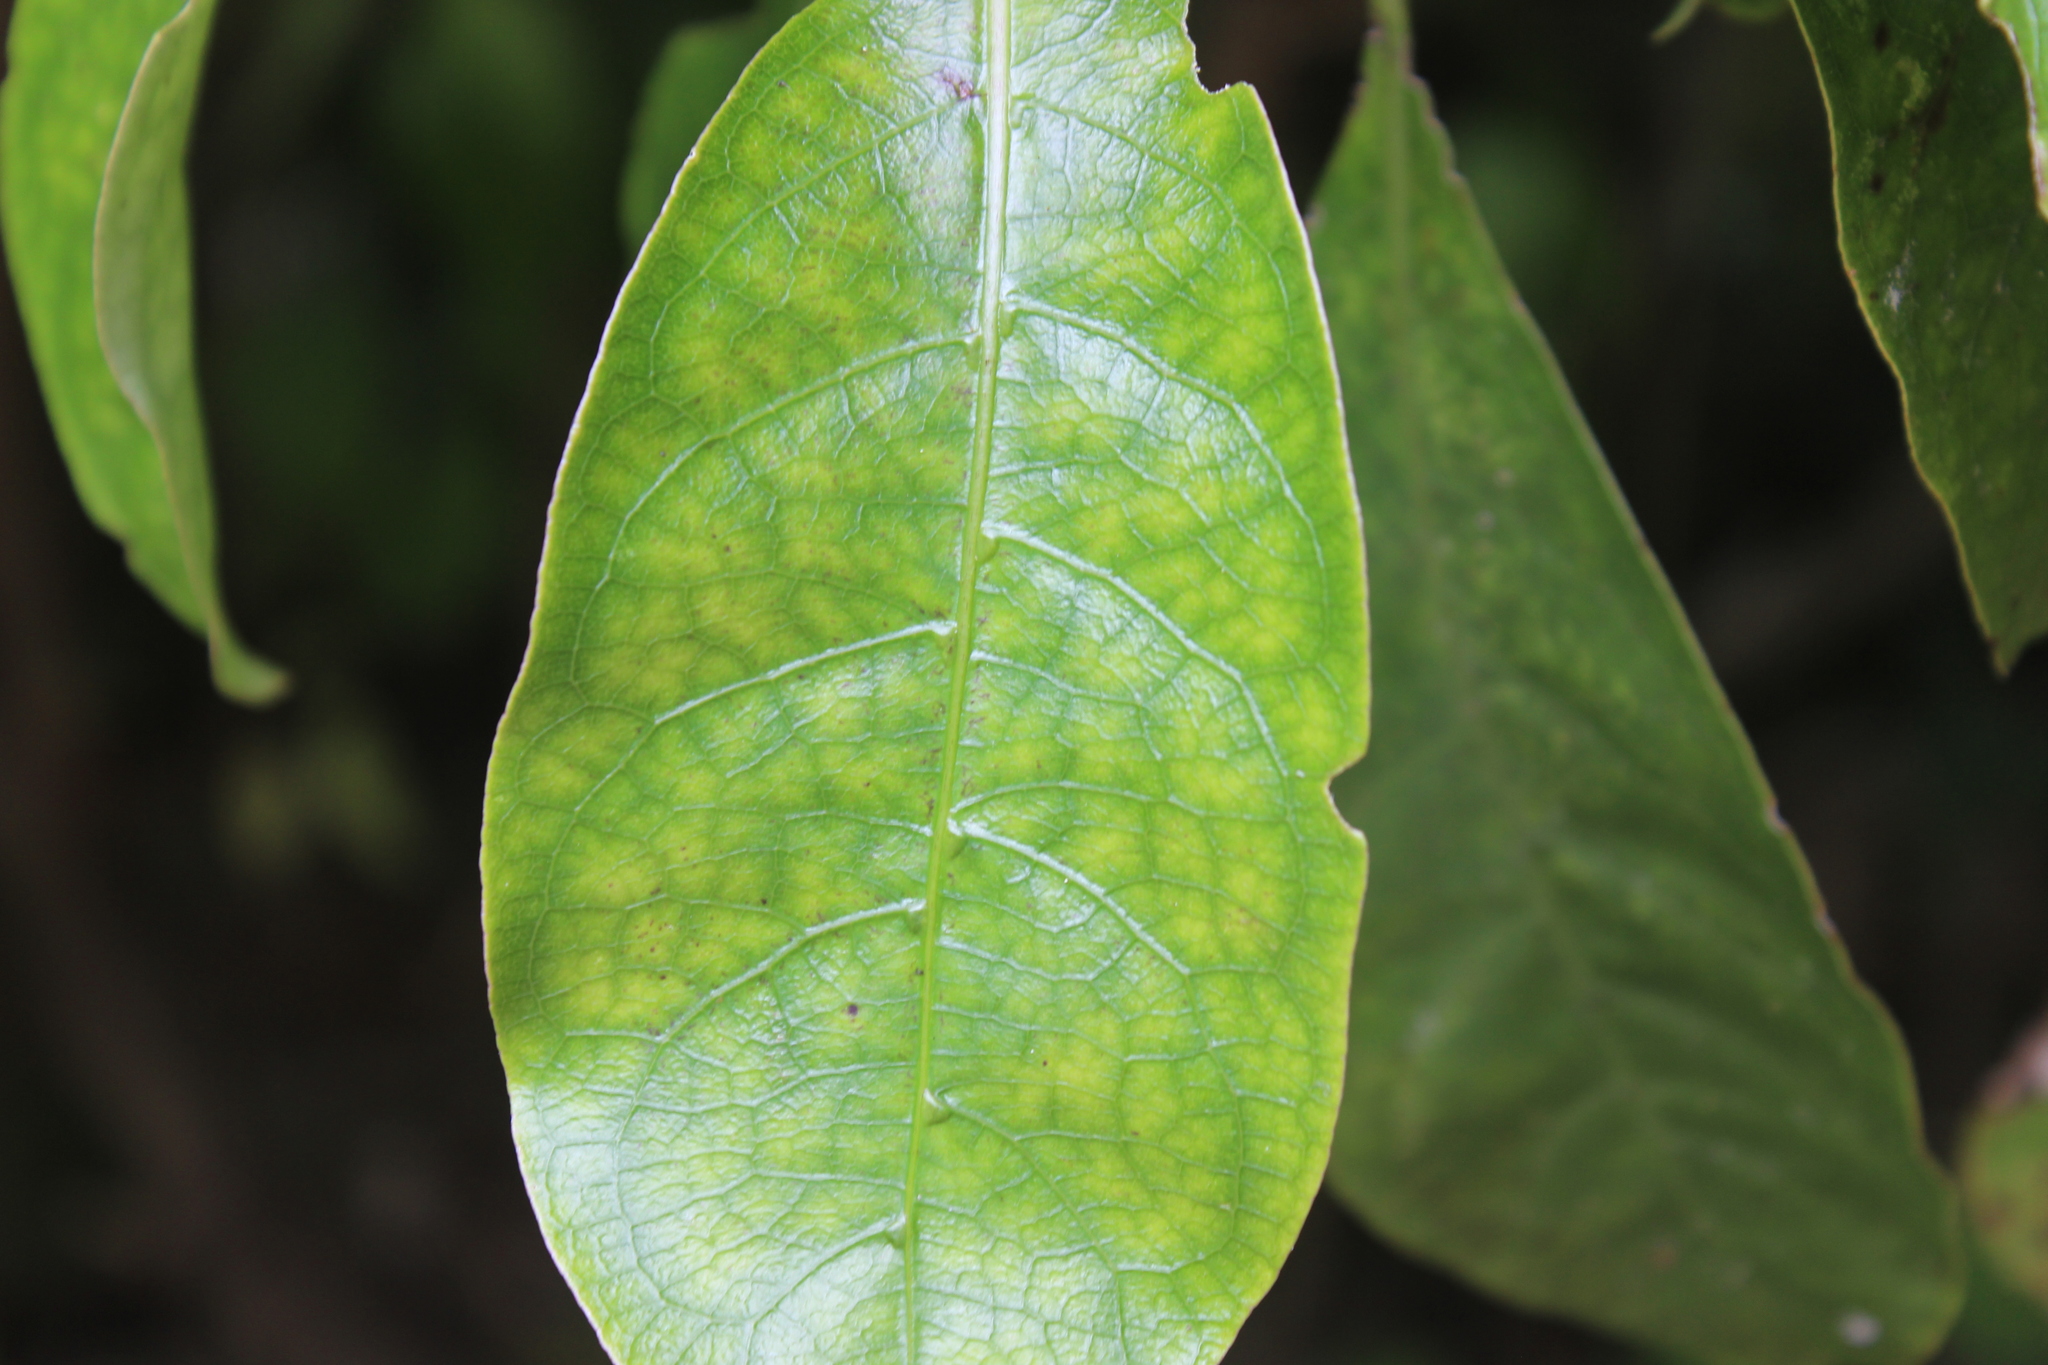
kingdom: Plantae
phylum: Tracheophyta
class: Magnoliopsida
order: Gentianales
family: Rubiaceae
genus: Coprosma
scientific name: Coprosma autumnalis
